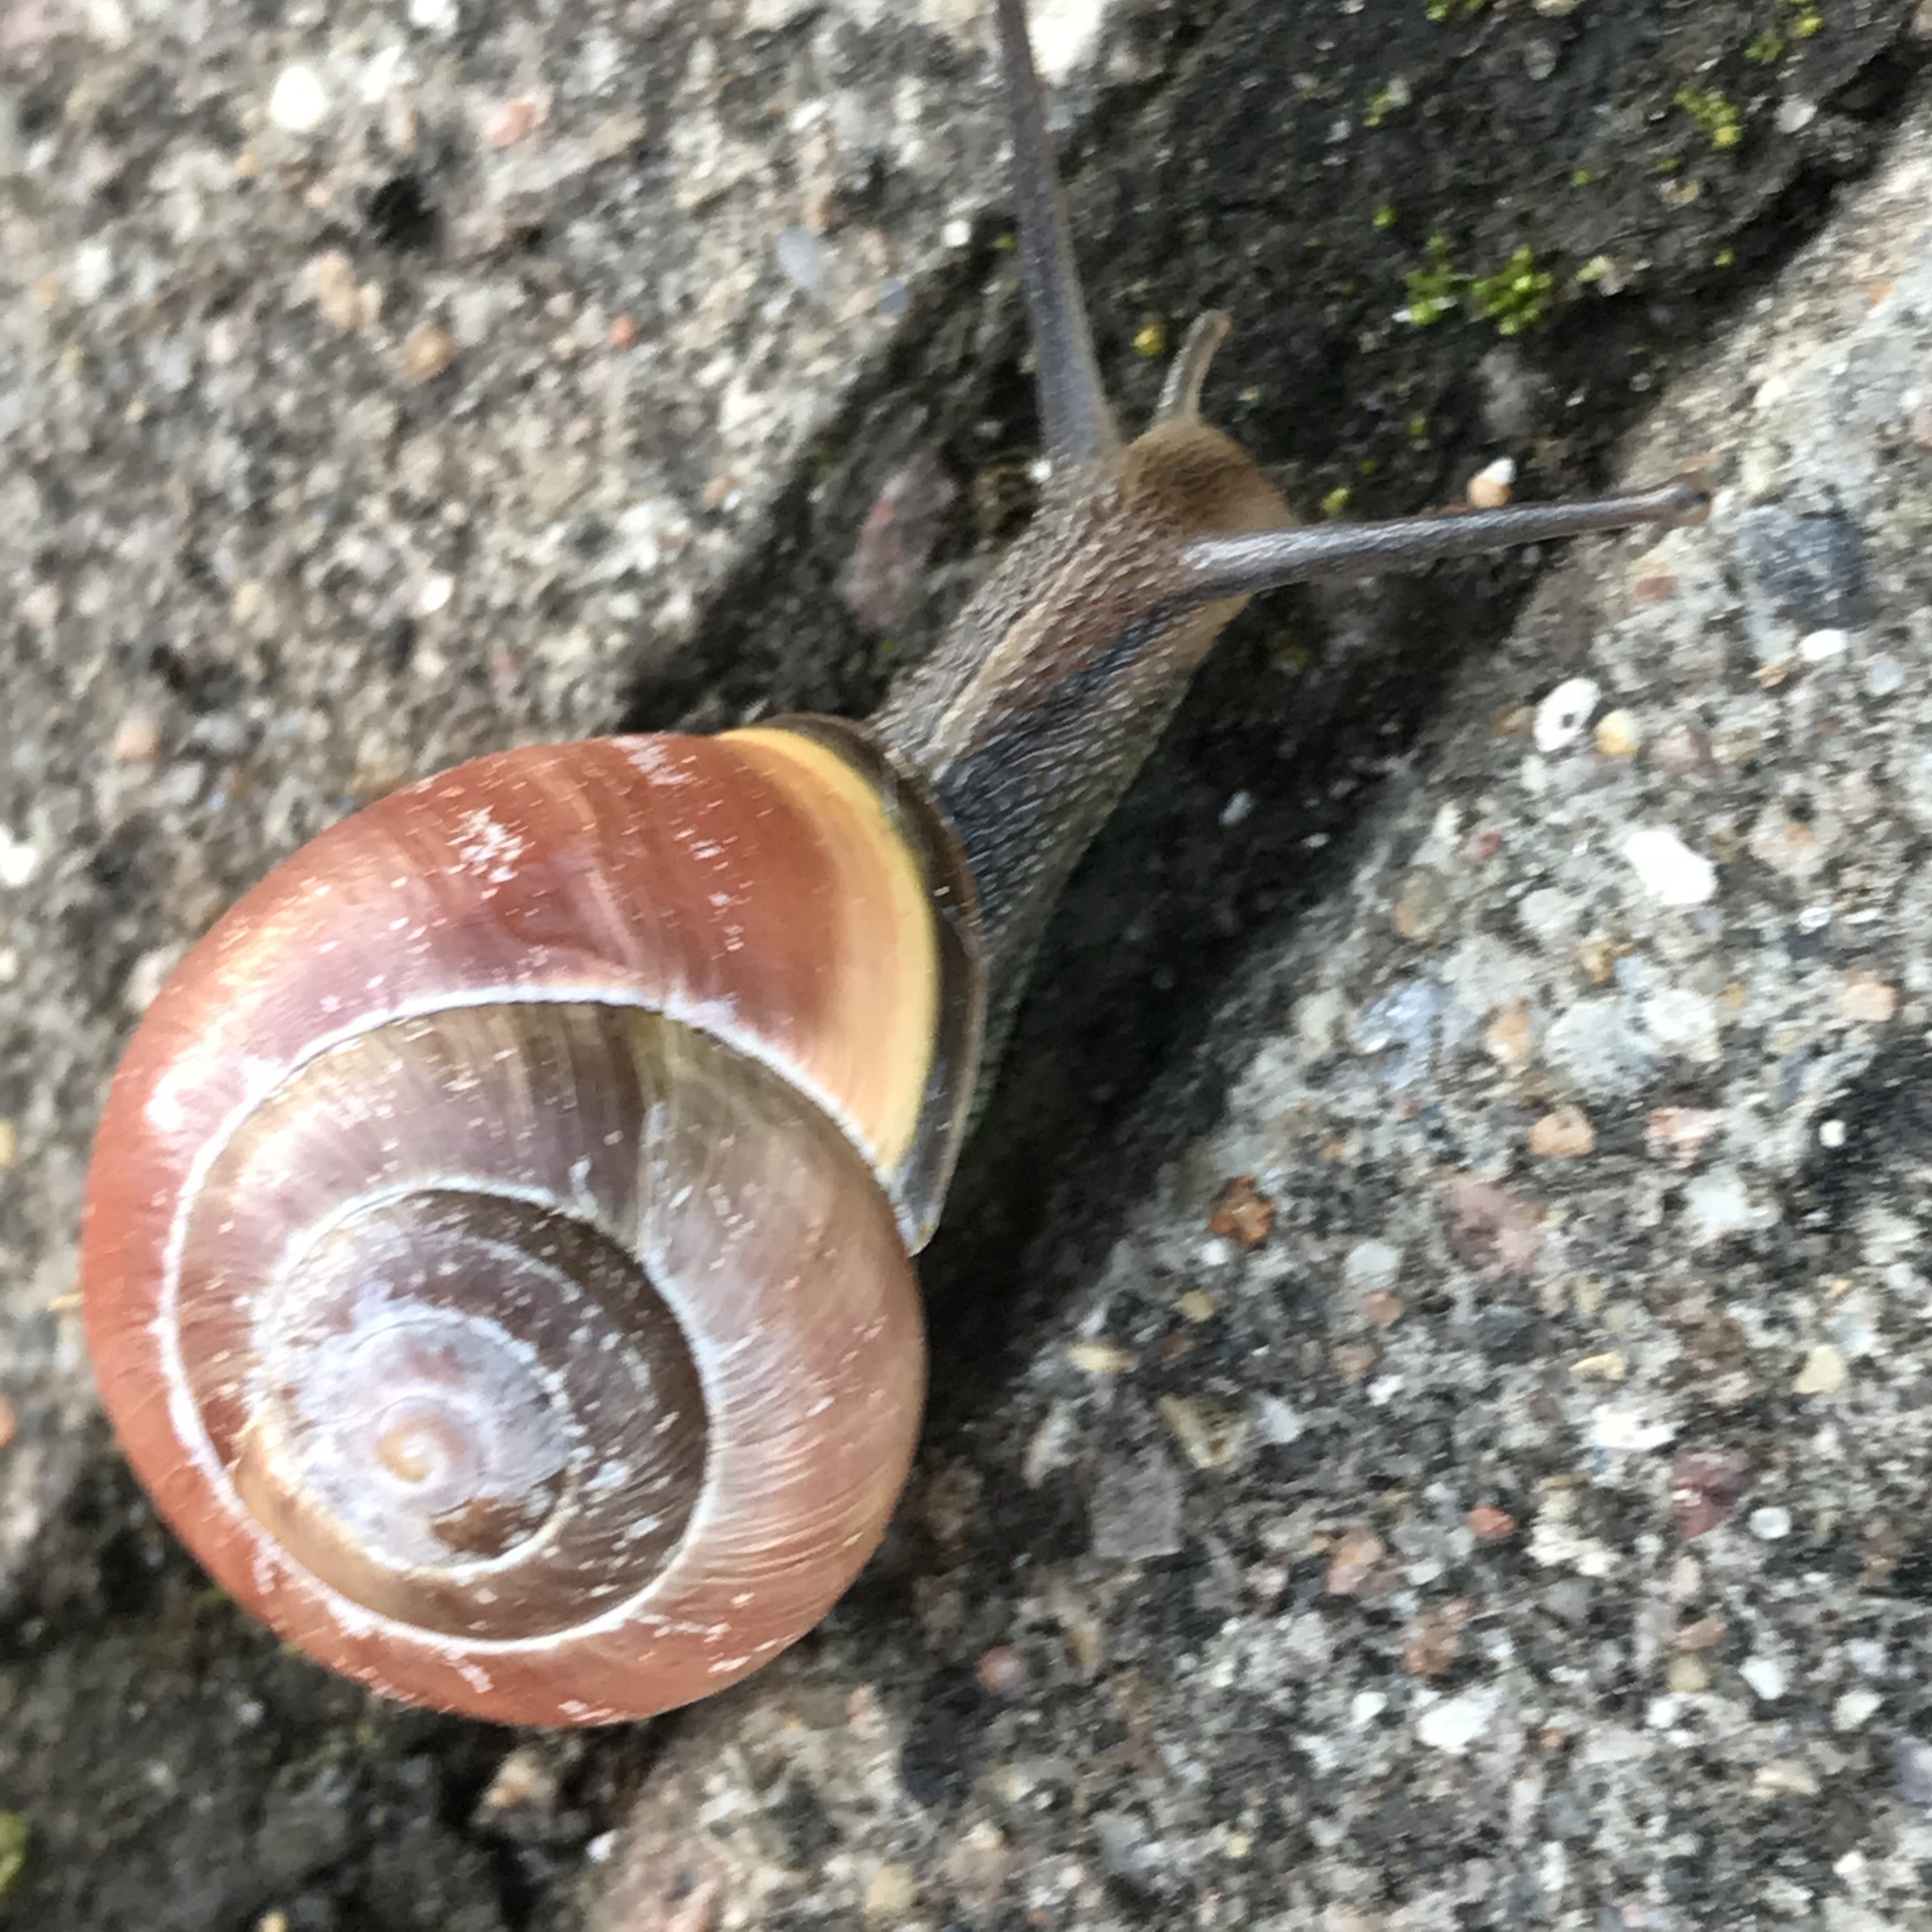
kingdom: Animalia
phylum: Mollusca
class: Gastropoda
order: Stylommatophora
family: Helicidae
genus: Cepaea
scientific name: Cepaea nemoralis
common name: Grovesnail
